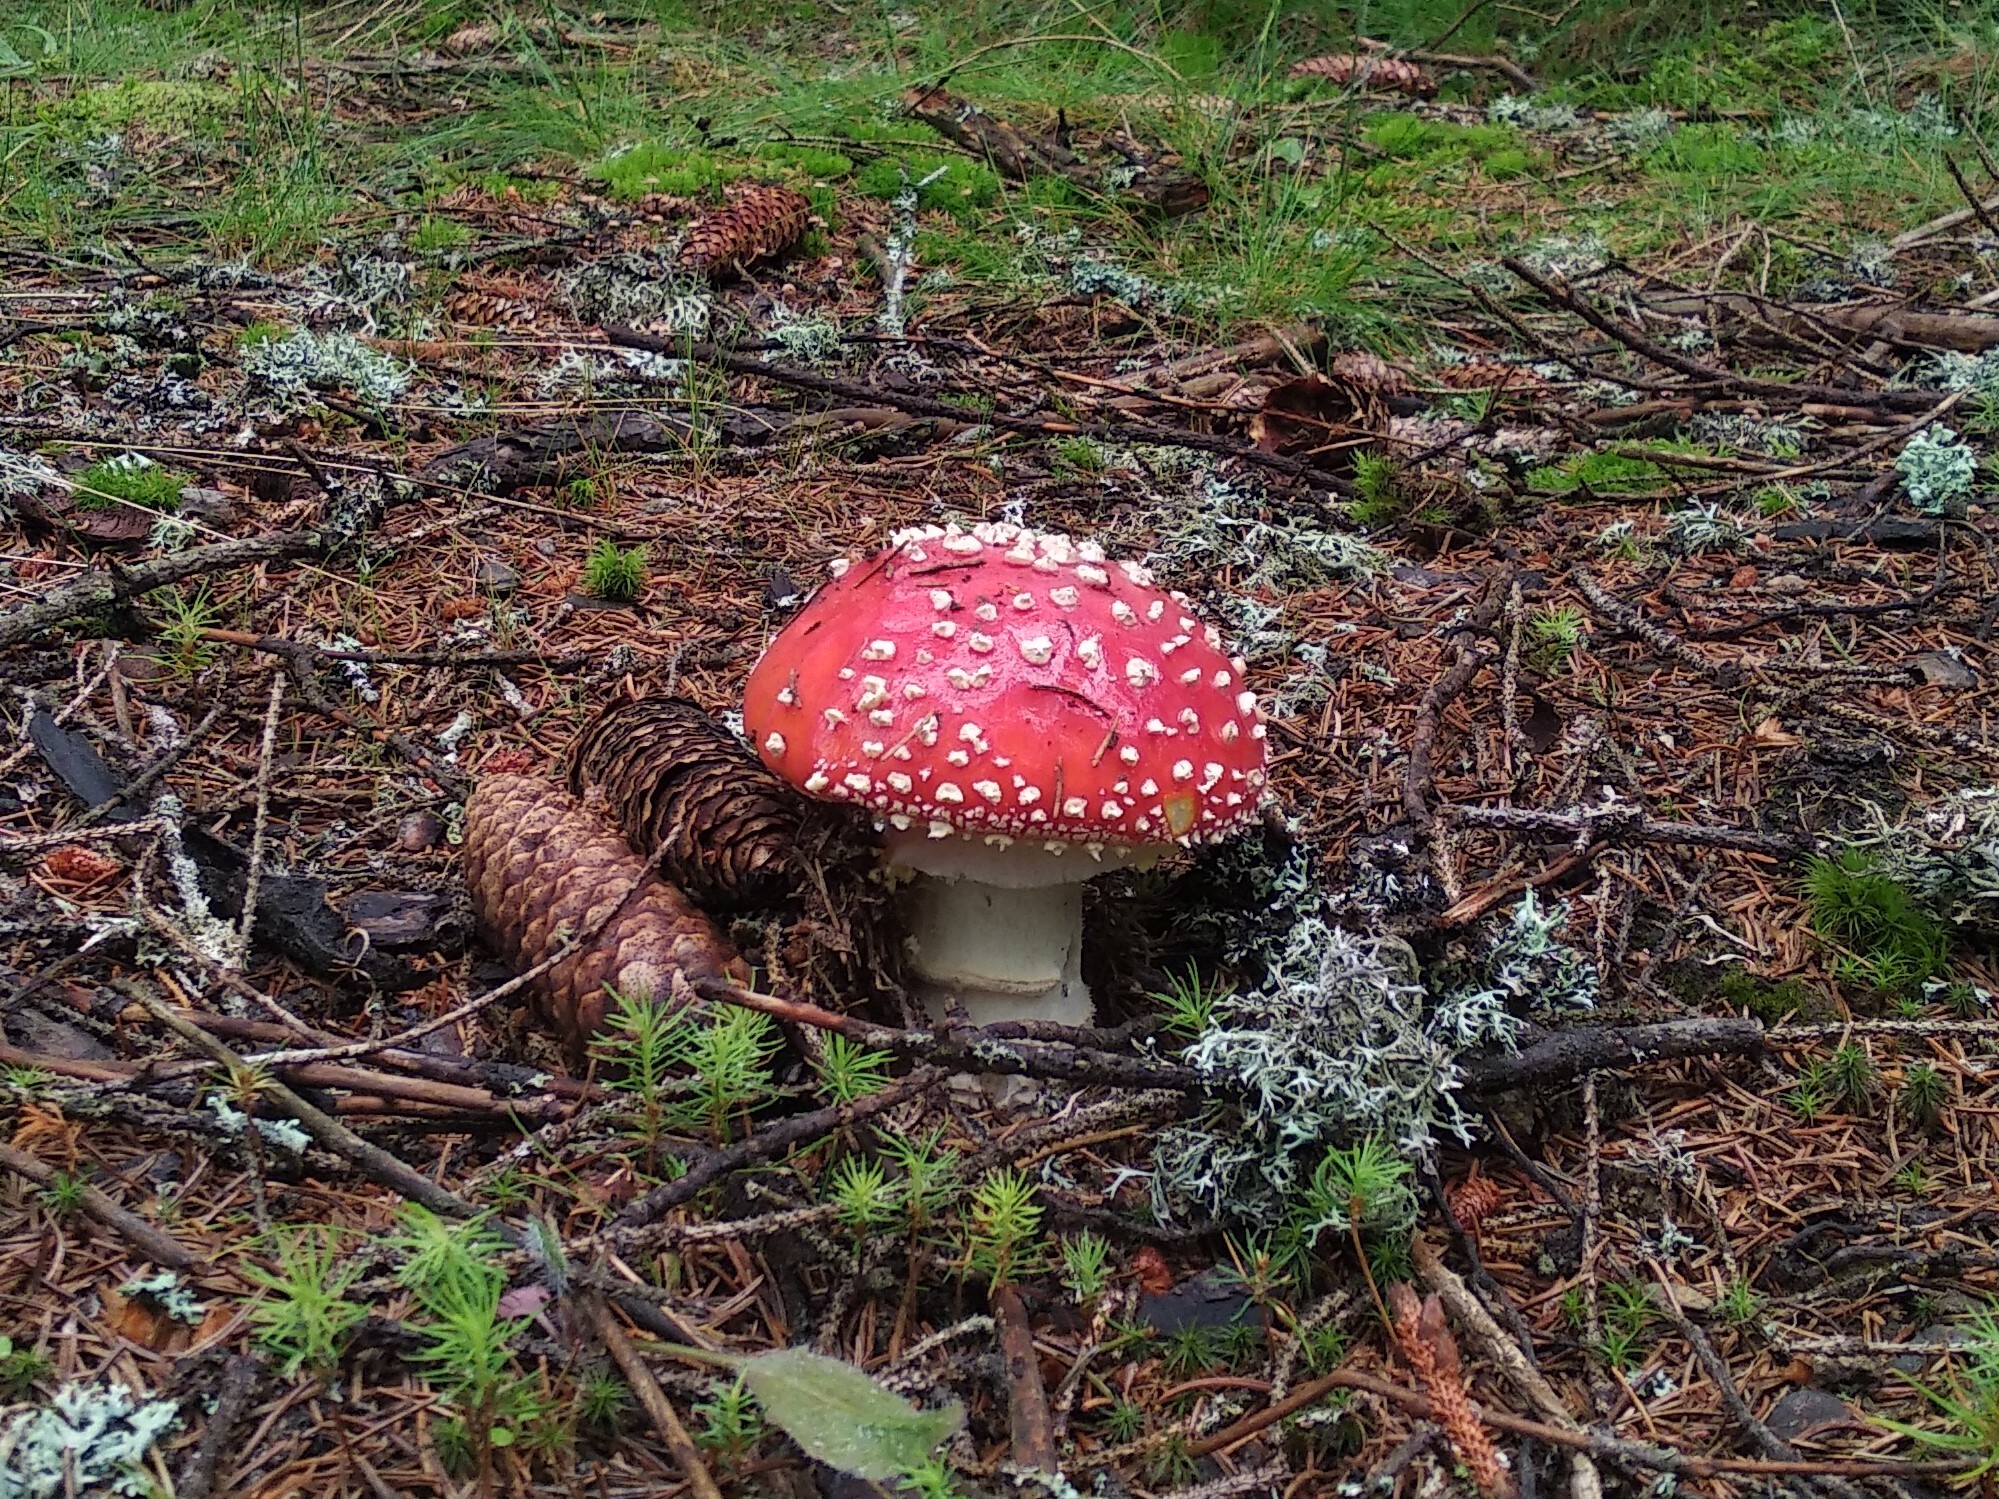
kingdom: Fungi
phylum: Basidiomycota
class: Agaricomycetes
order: Agaricales
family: Amanitaceae
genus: Amanita
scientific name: Amanita muscaria
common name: Fly agaric
